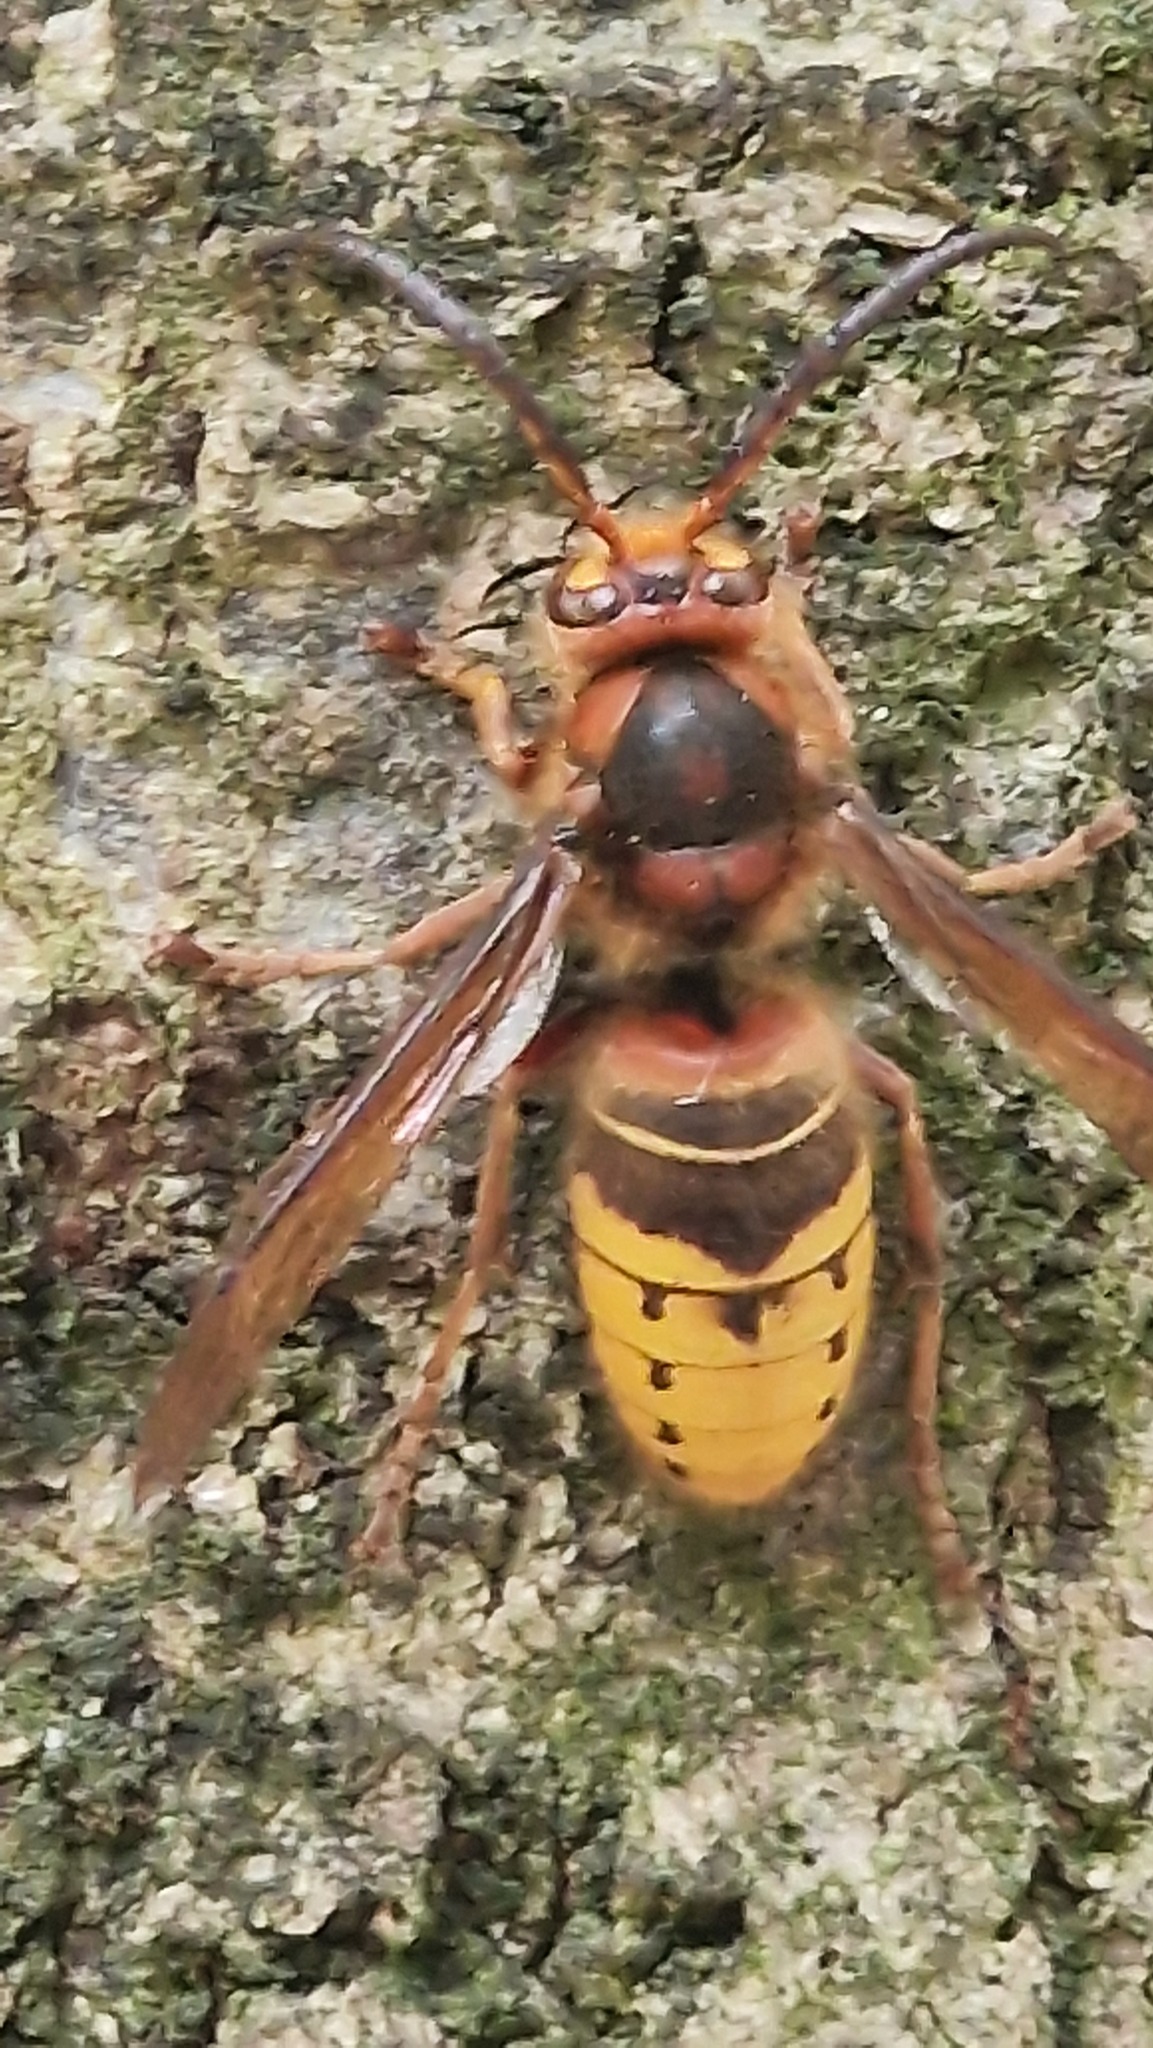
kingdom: Animalia
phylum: Arthropoda
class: Insecta
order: Hymenoptera
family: Vespidae
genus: Vespa
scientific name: Vespa crabro
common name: Hornet
